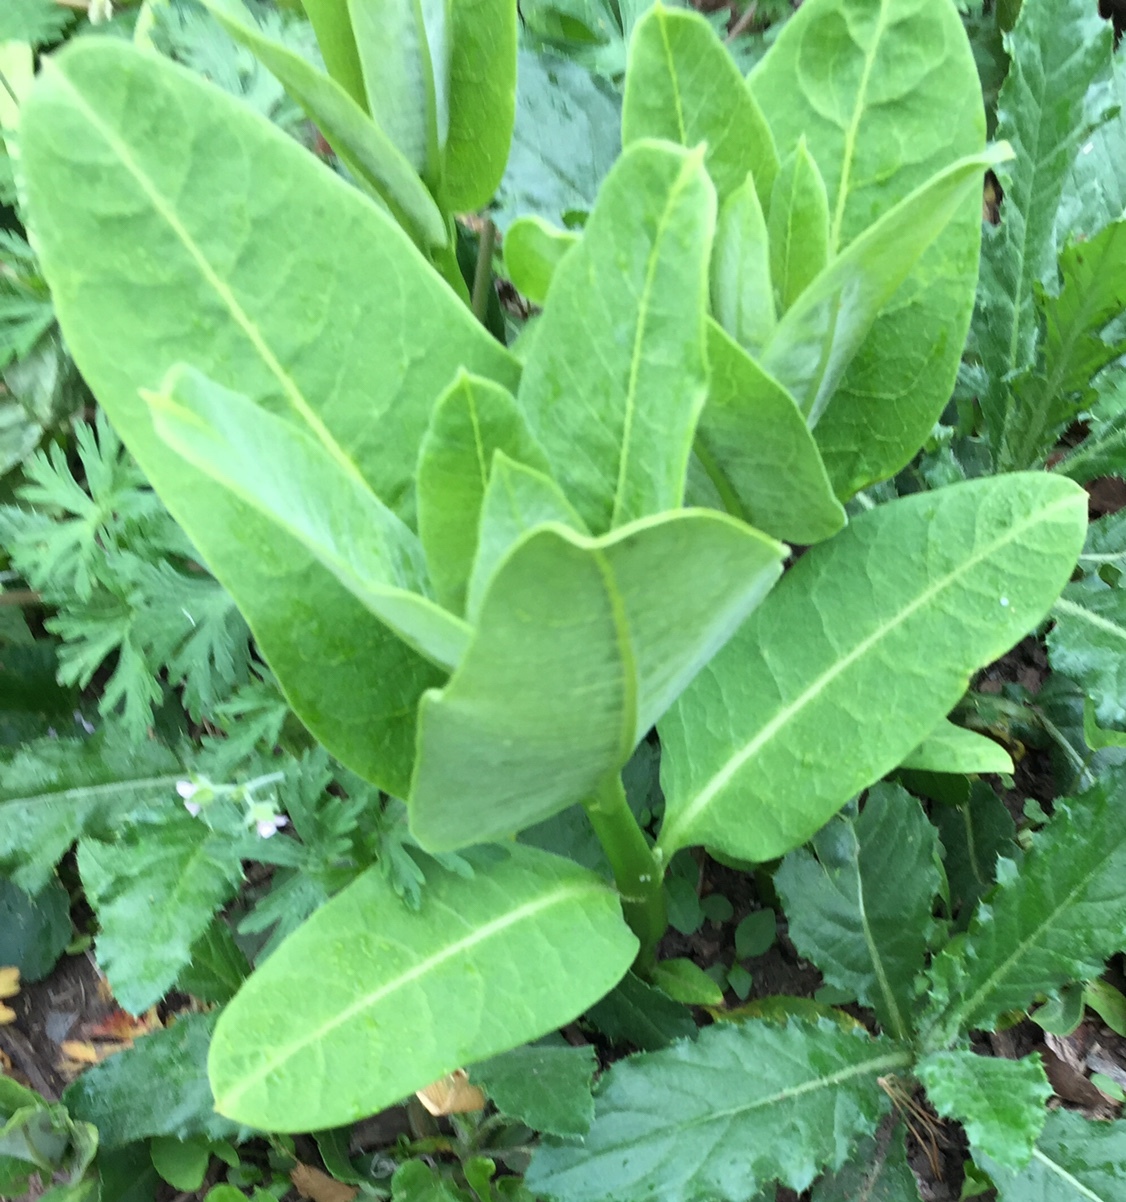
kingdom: Plantae
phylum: Tracheophyta
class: Magnoliopsida
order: Gentianales
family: Apocynaceae
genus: Asclepias
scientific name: Asclepias syriaca
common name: Common milkweed
